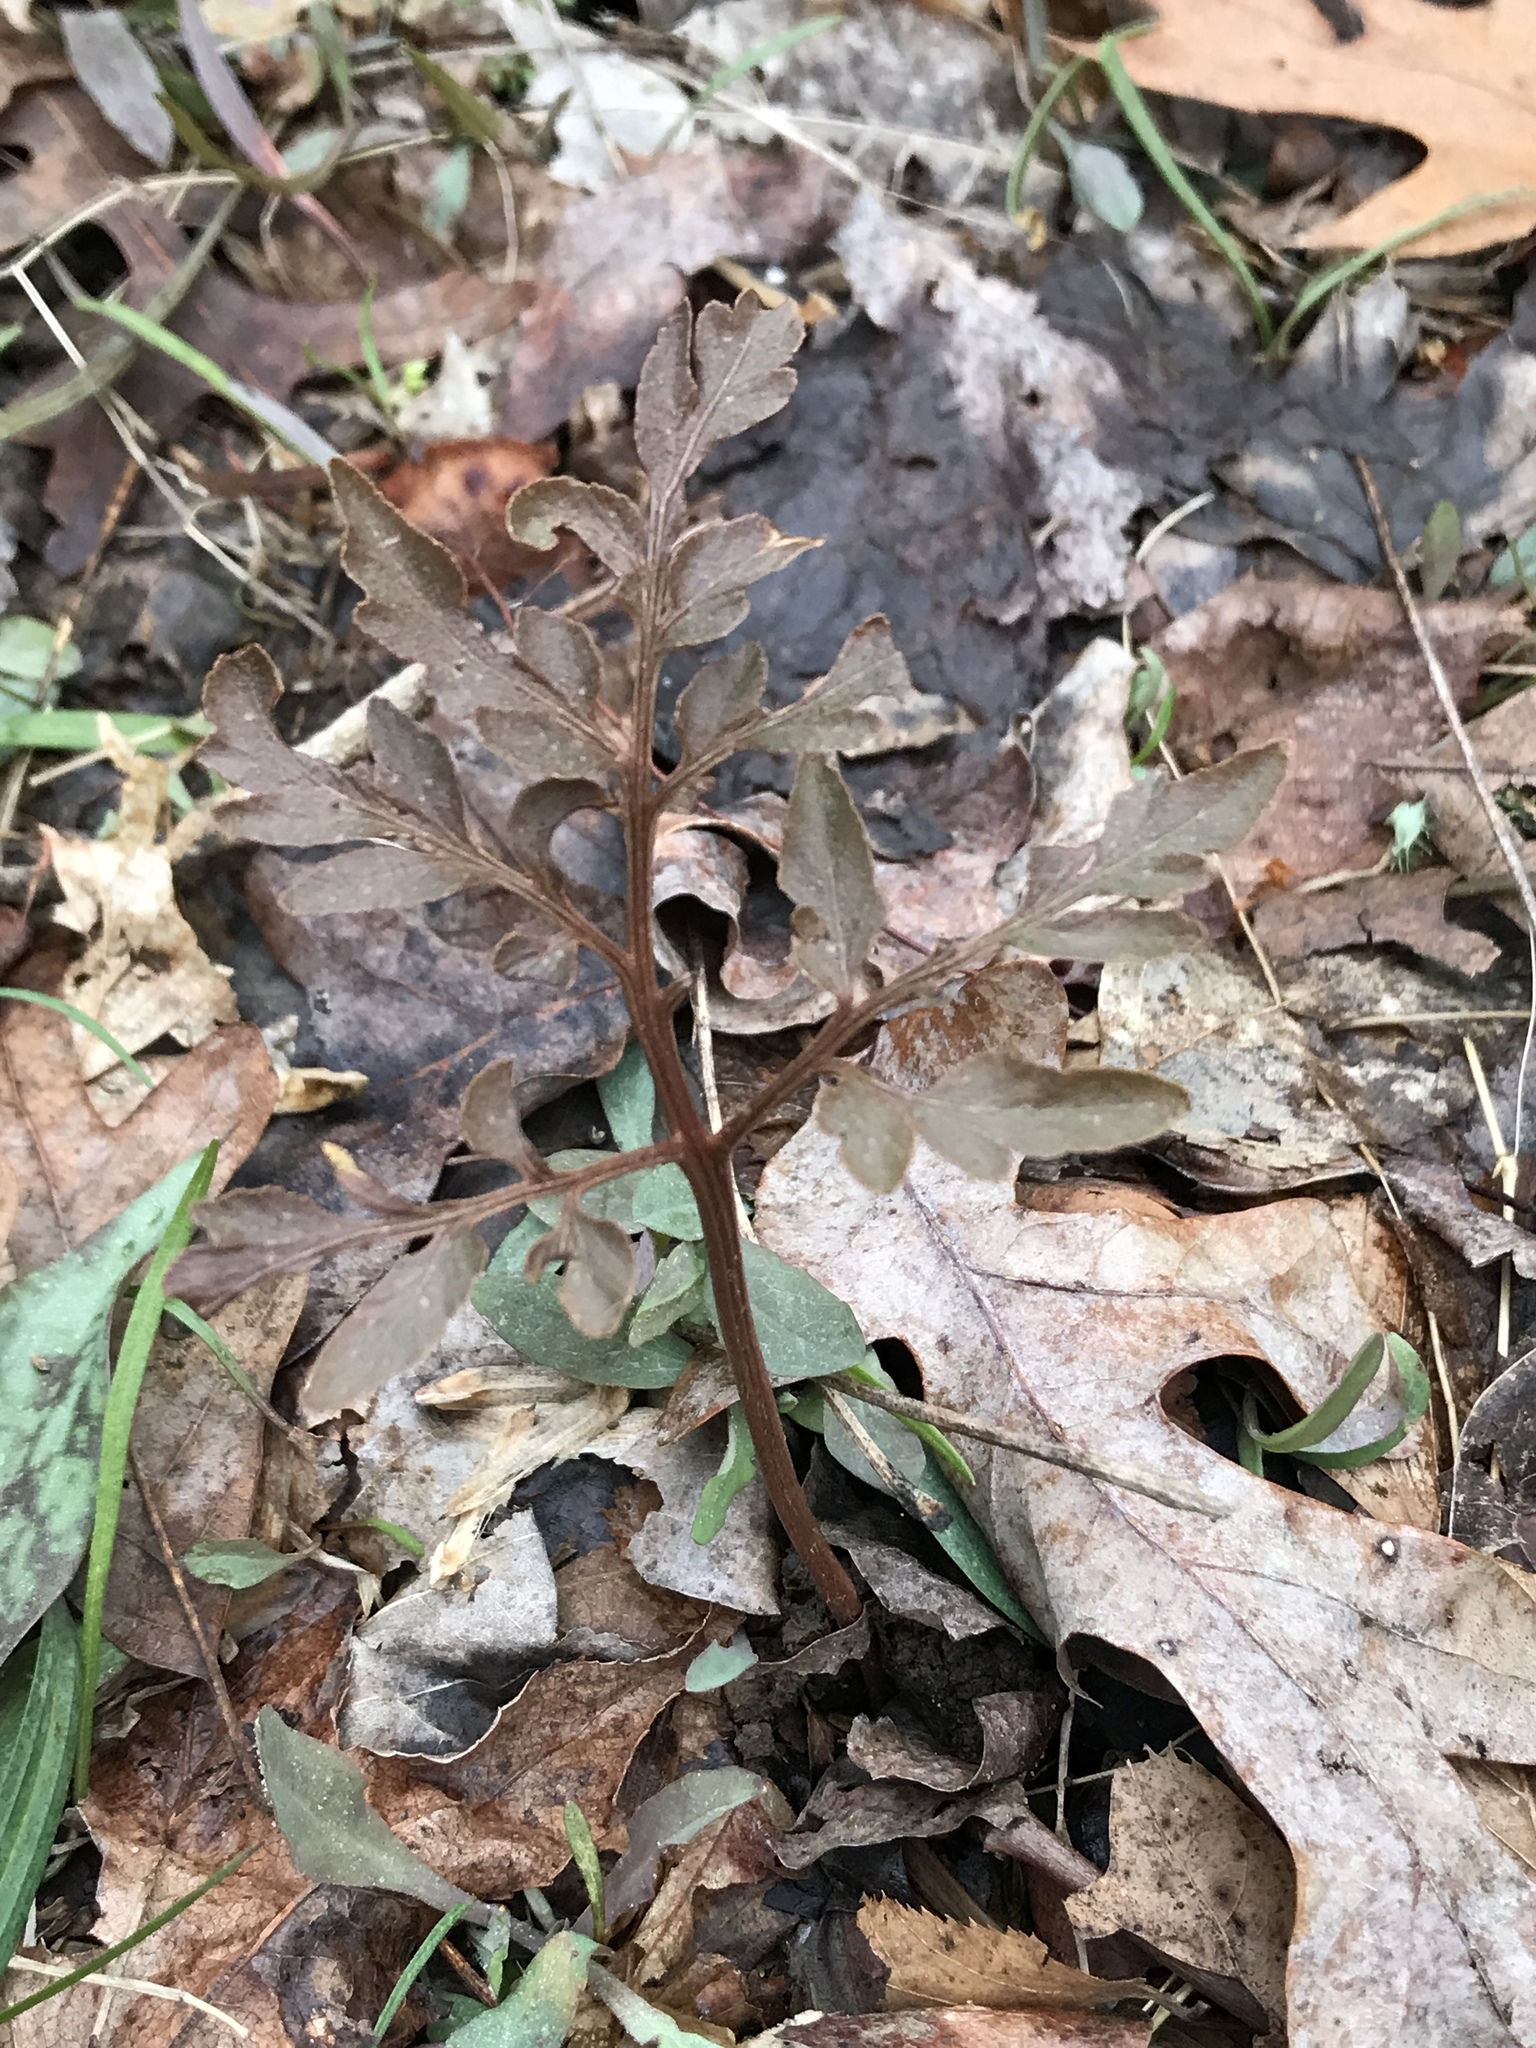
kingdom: Plantae
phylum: Tracheophyta
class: Polypodiopsida
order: Ophioglossales
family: Ophioglossaceae
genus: Sceptridium
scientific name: Sceptridium biternatum
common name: Sparse-lobed grapefern
